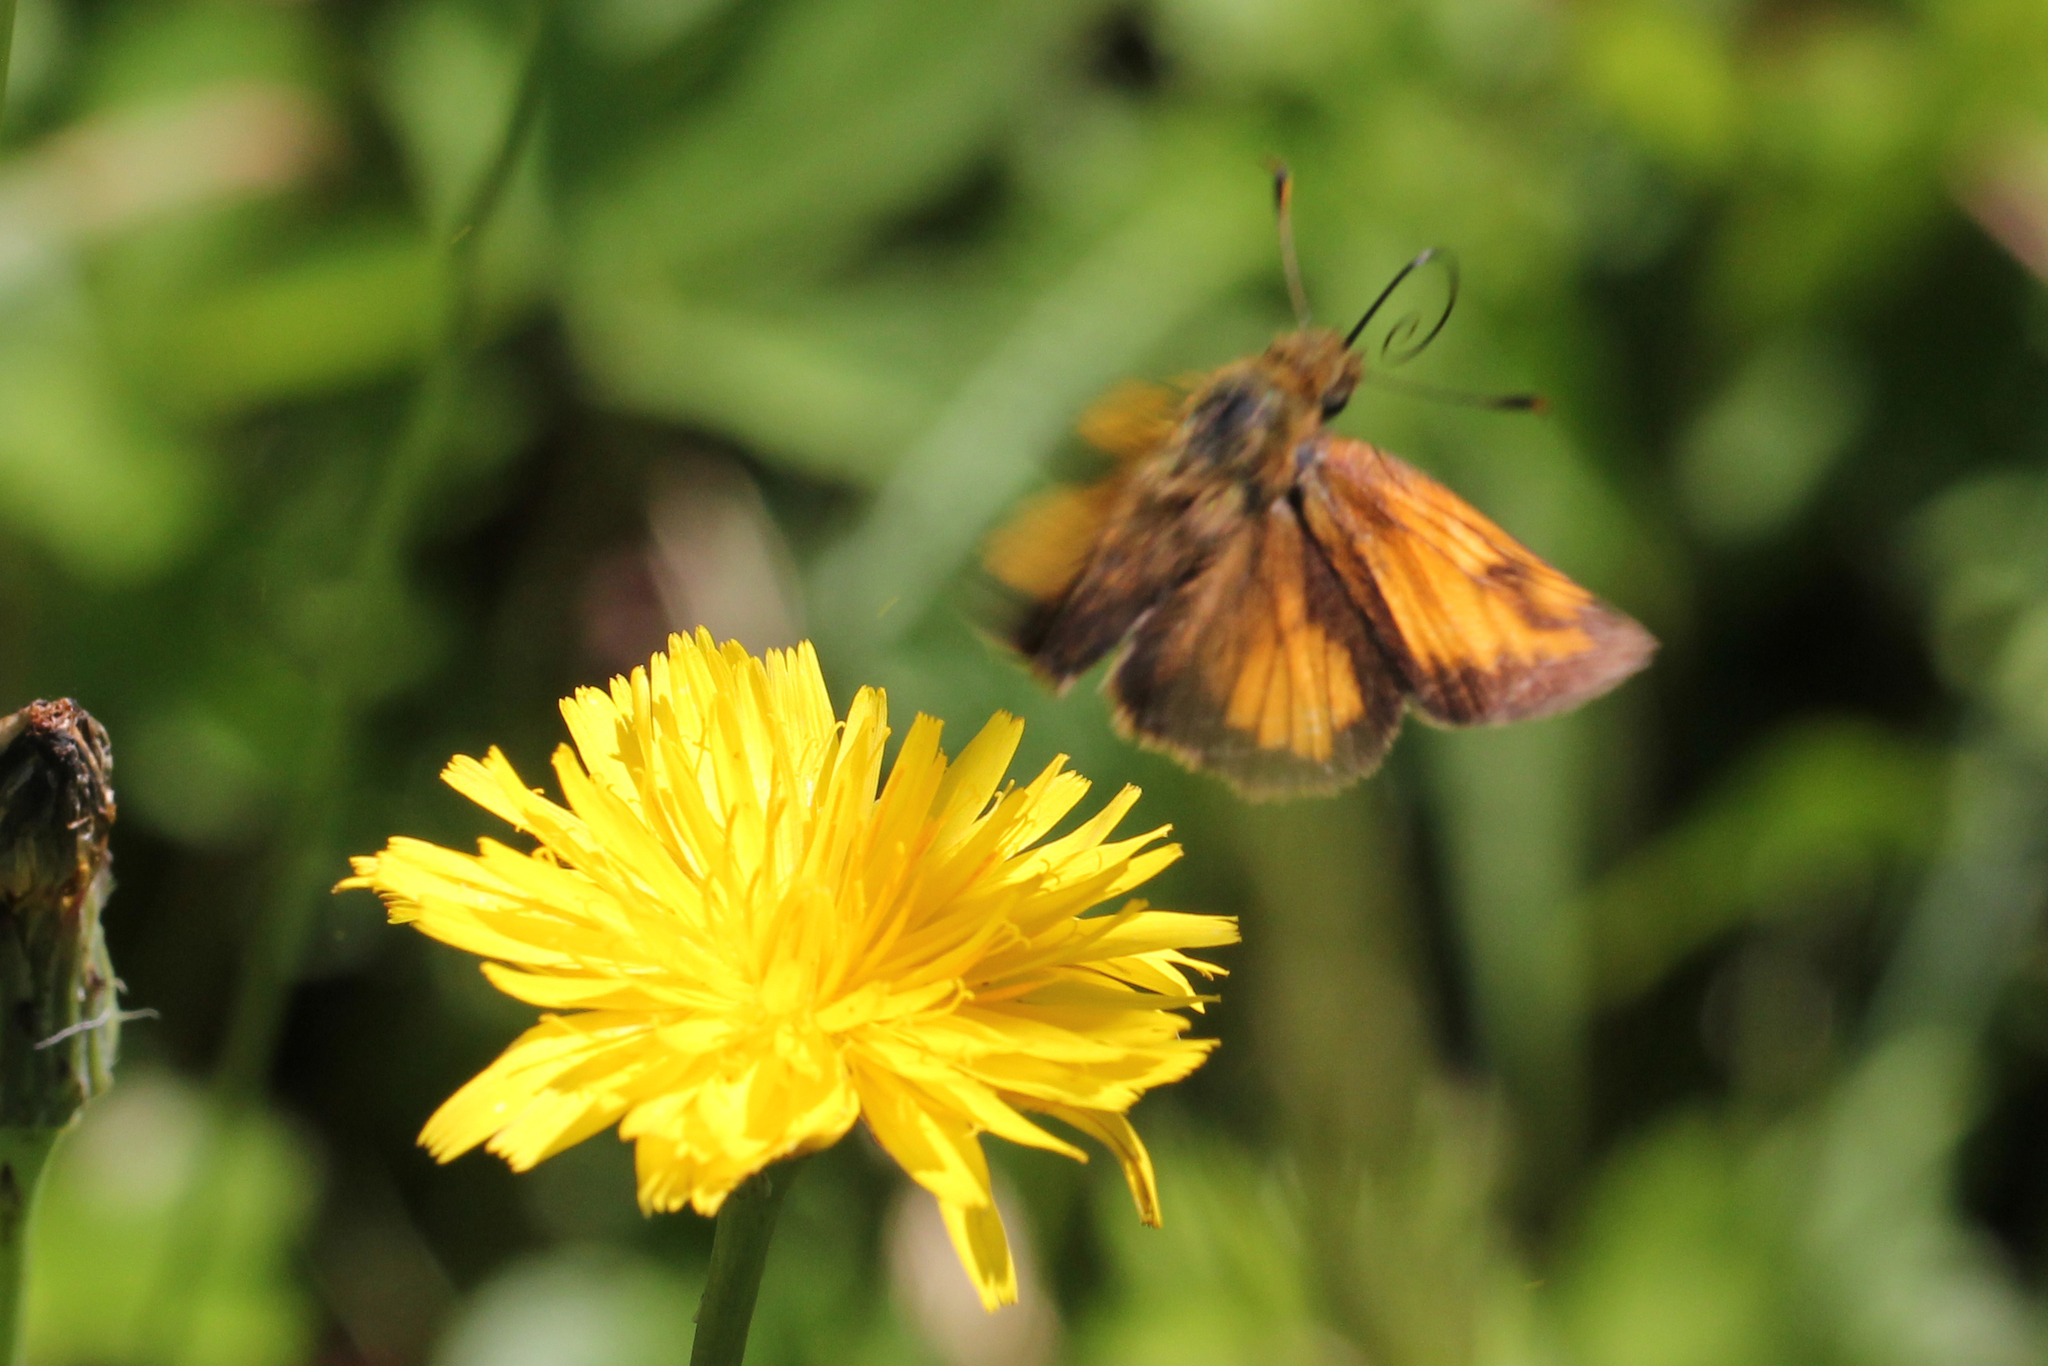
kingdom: Animalia
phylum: Arthropoda
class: Insecta
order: Lepidoptera
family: Hesperiidae
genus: Lon
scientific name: Lon hobomok
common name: Hobomok skipper
